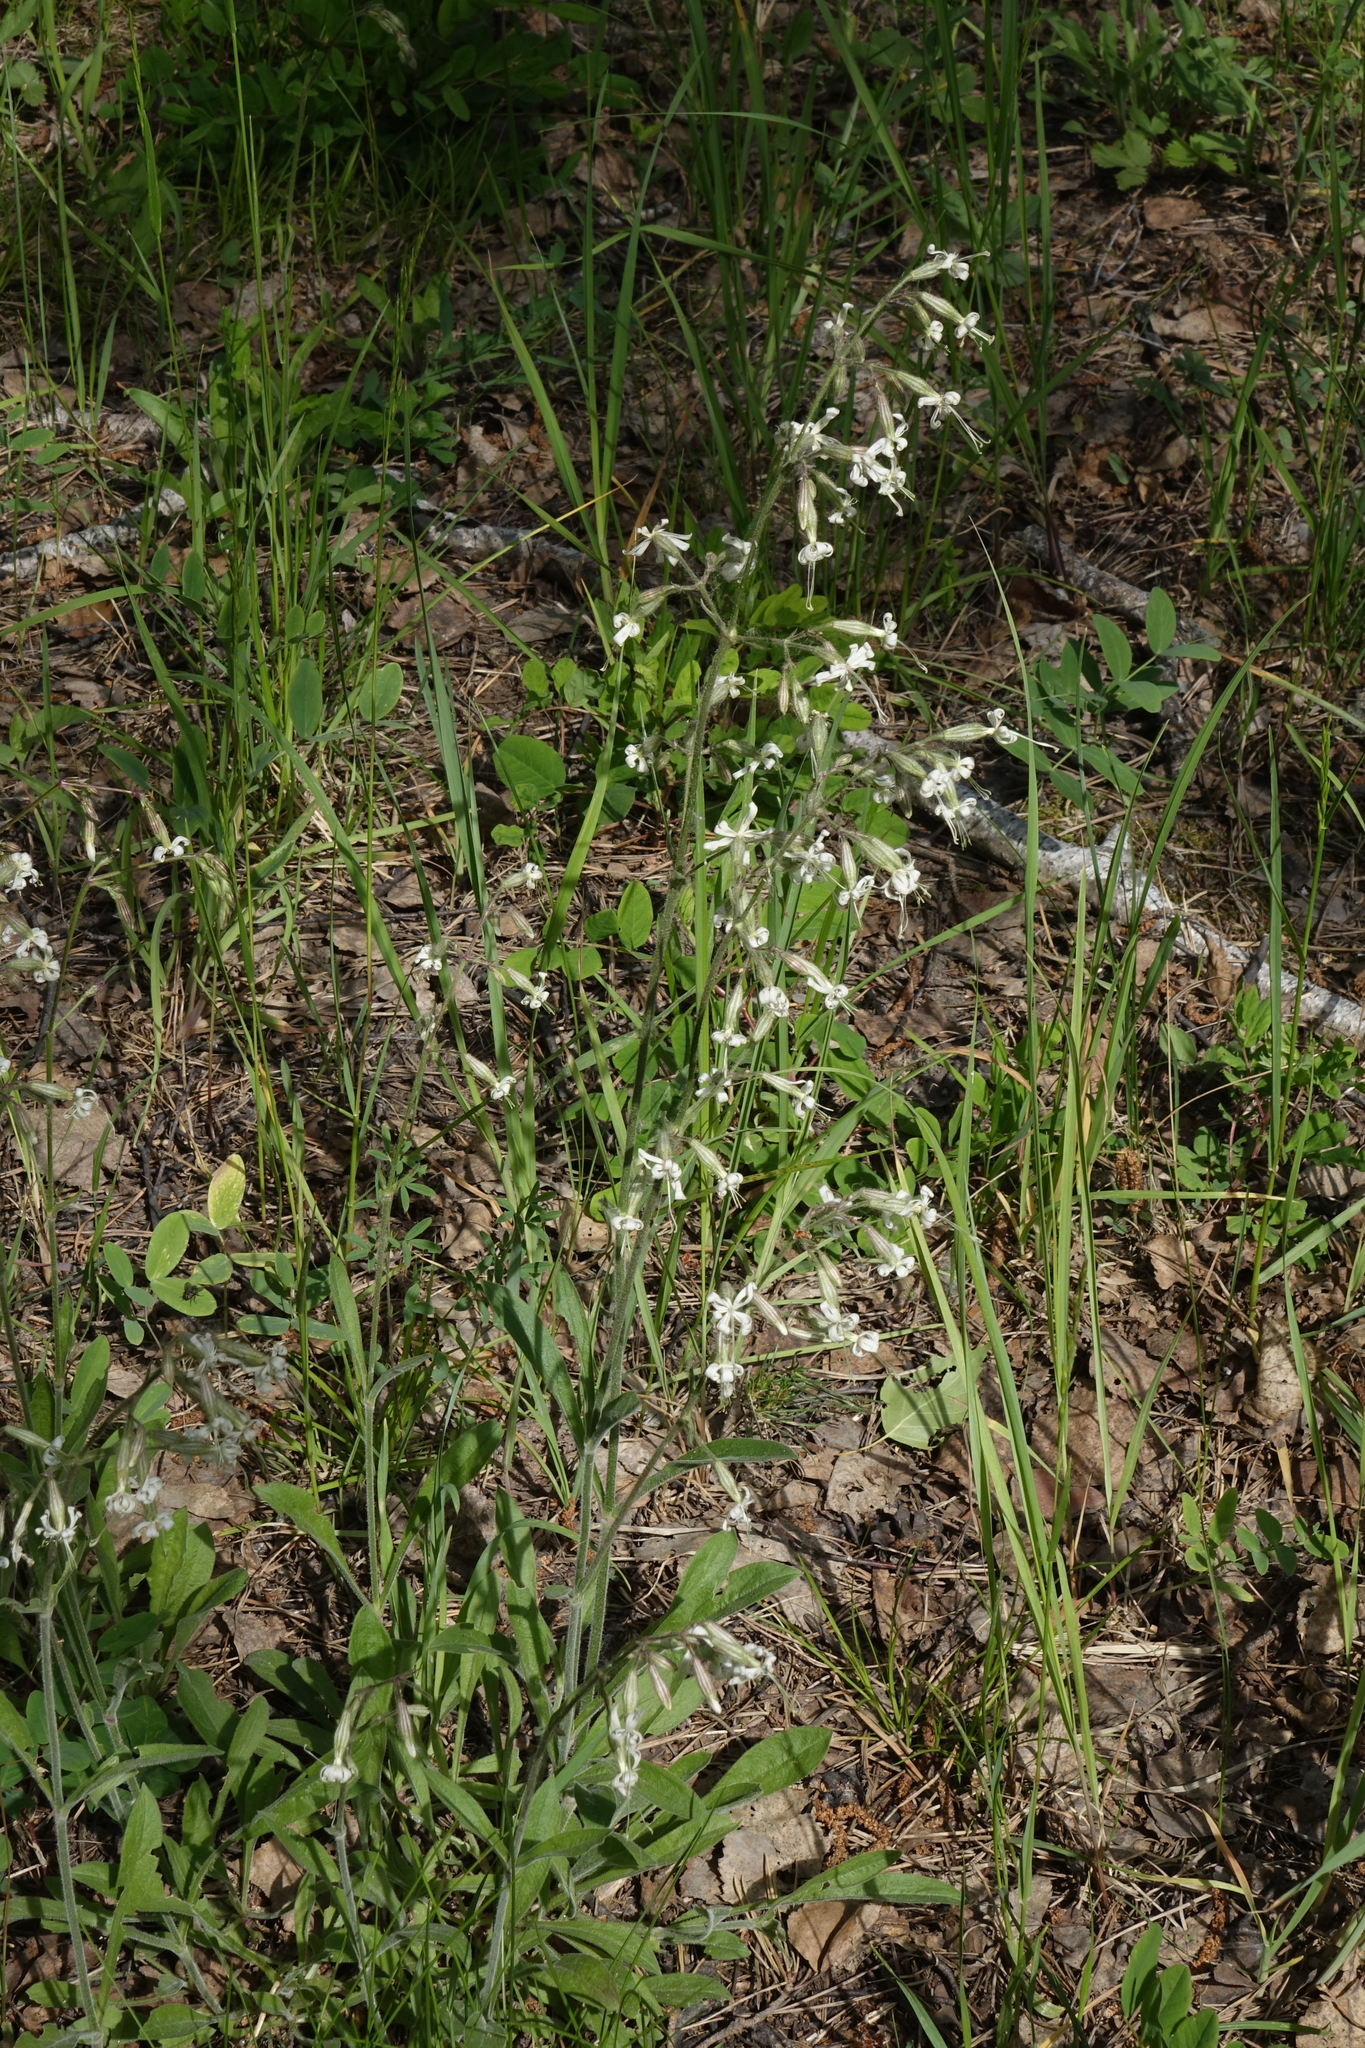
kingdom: Plantae
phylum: Tracheophyta
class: Magnoliopsida
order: Caryophyllales
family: Caryophyllaceae
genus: Silene
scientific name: Silene nutans
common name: Nottingham catchfly
